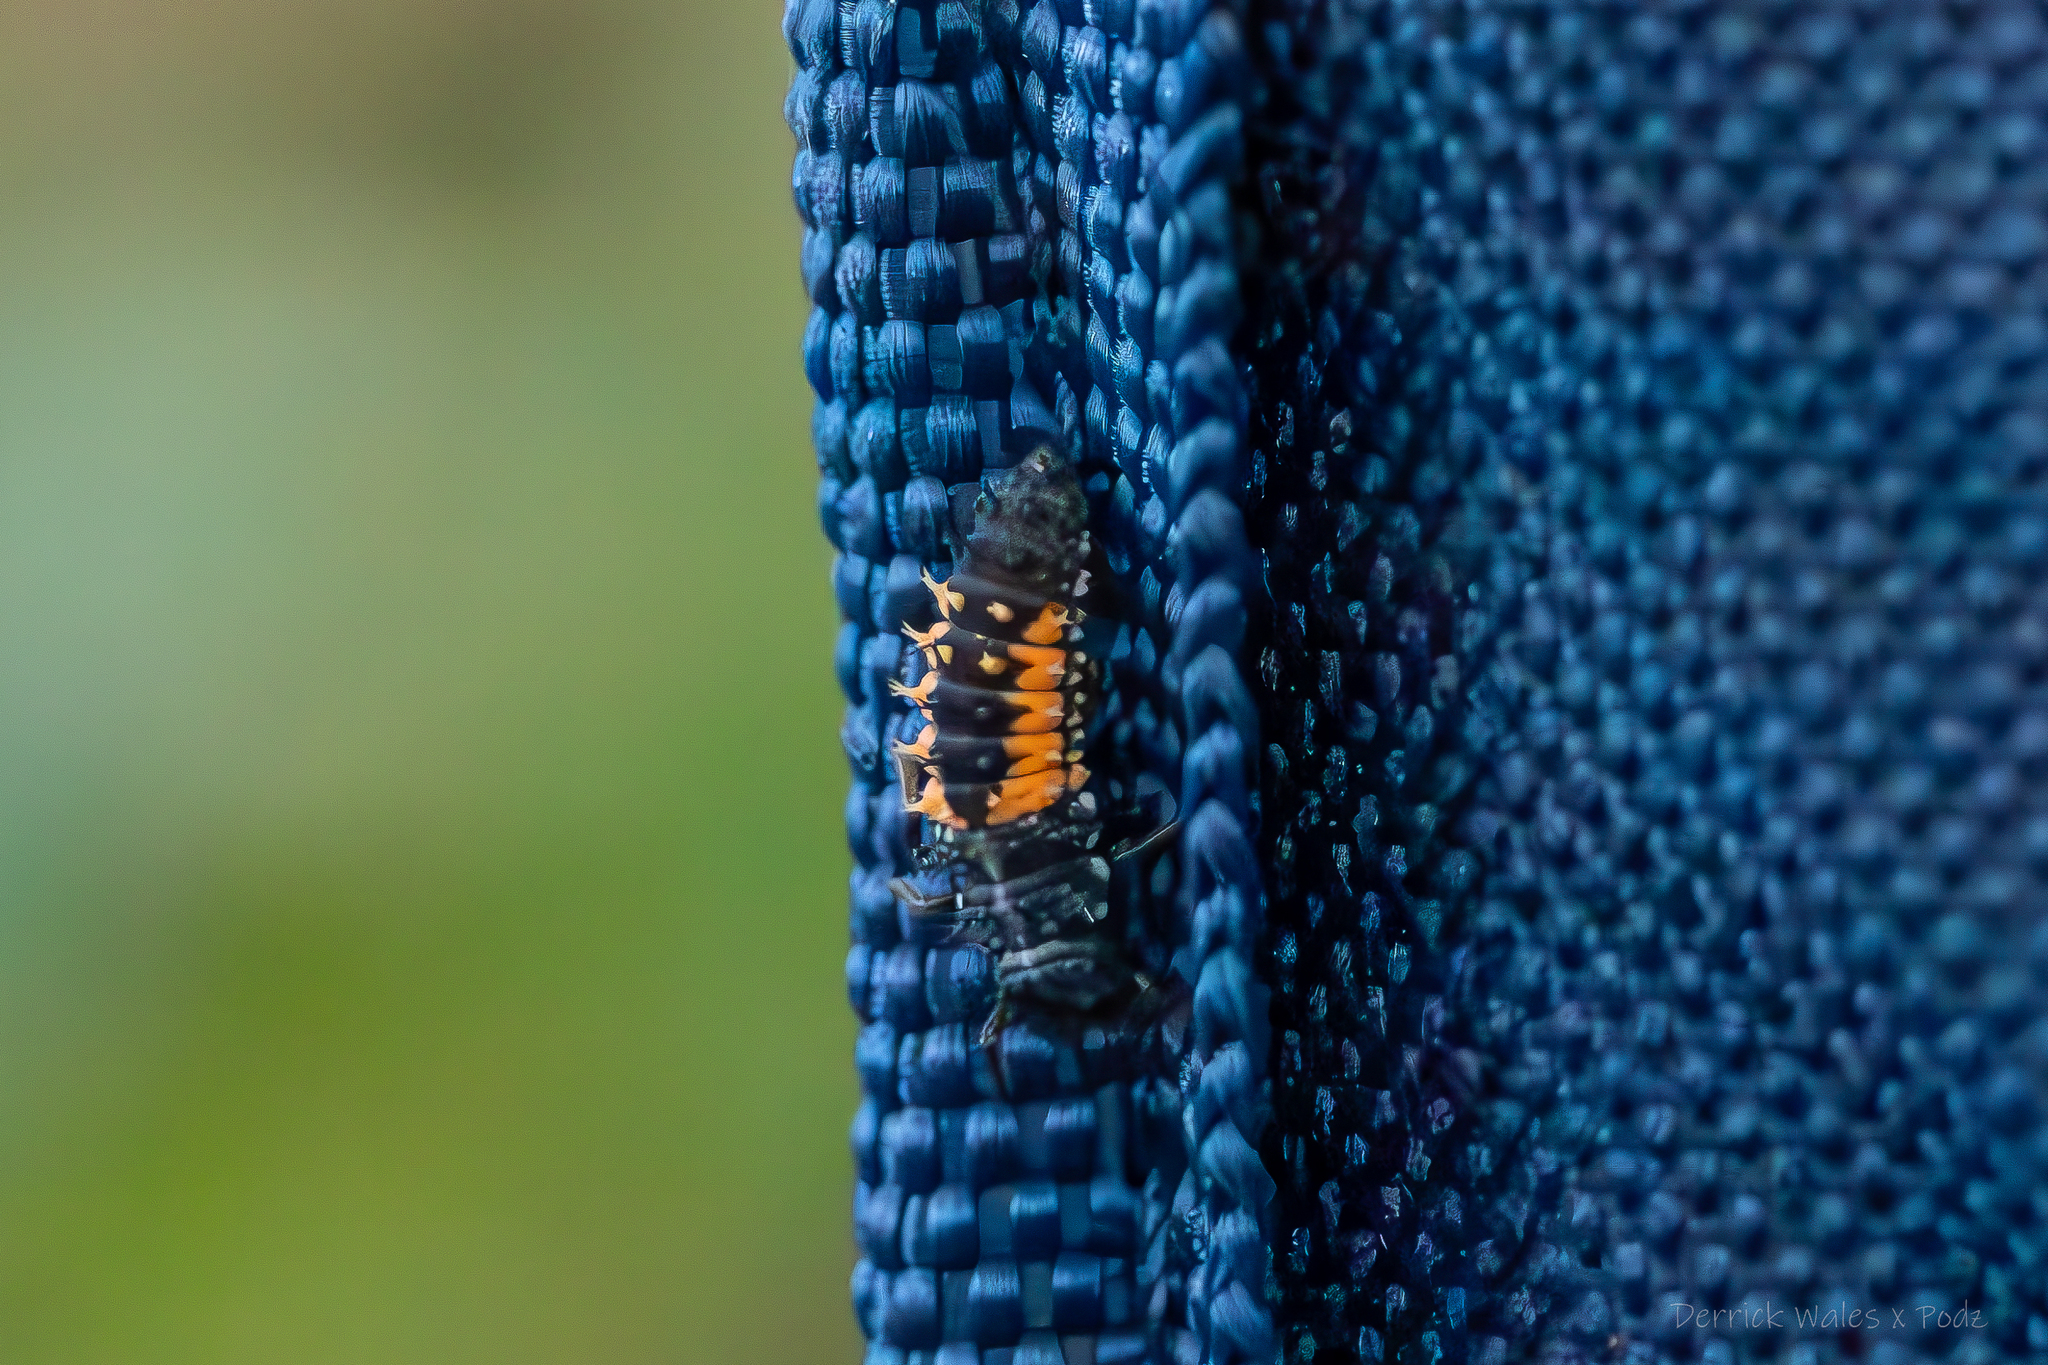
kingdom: Animalia
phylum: Arthropoda
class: Insecta
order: Coleoptera
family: Coccinellidae
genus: Harmonia
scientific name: Harmonia axyridis
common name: Harlequin ladybird
